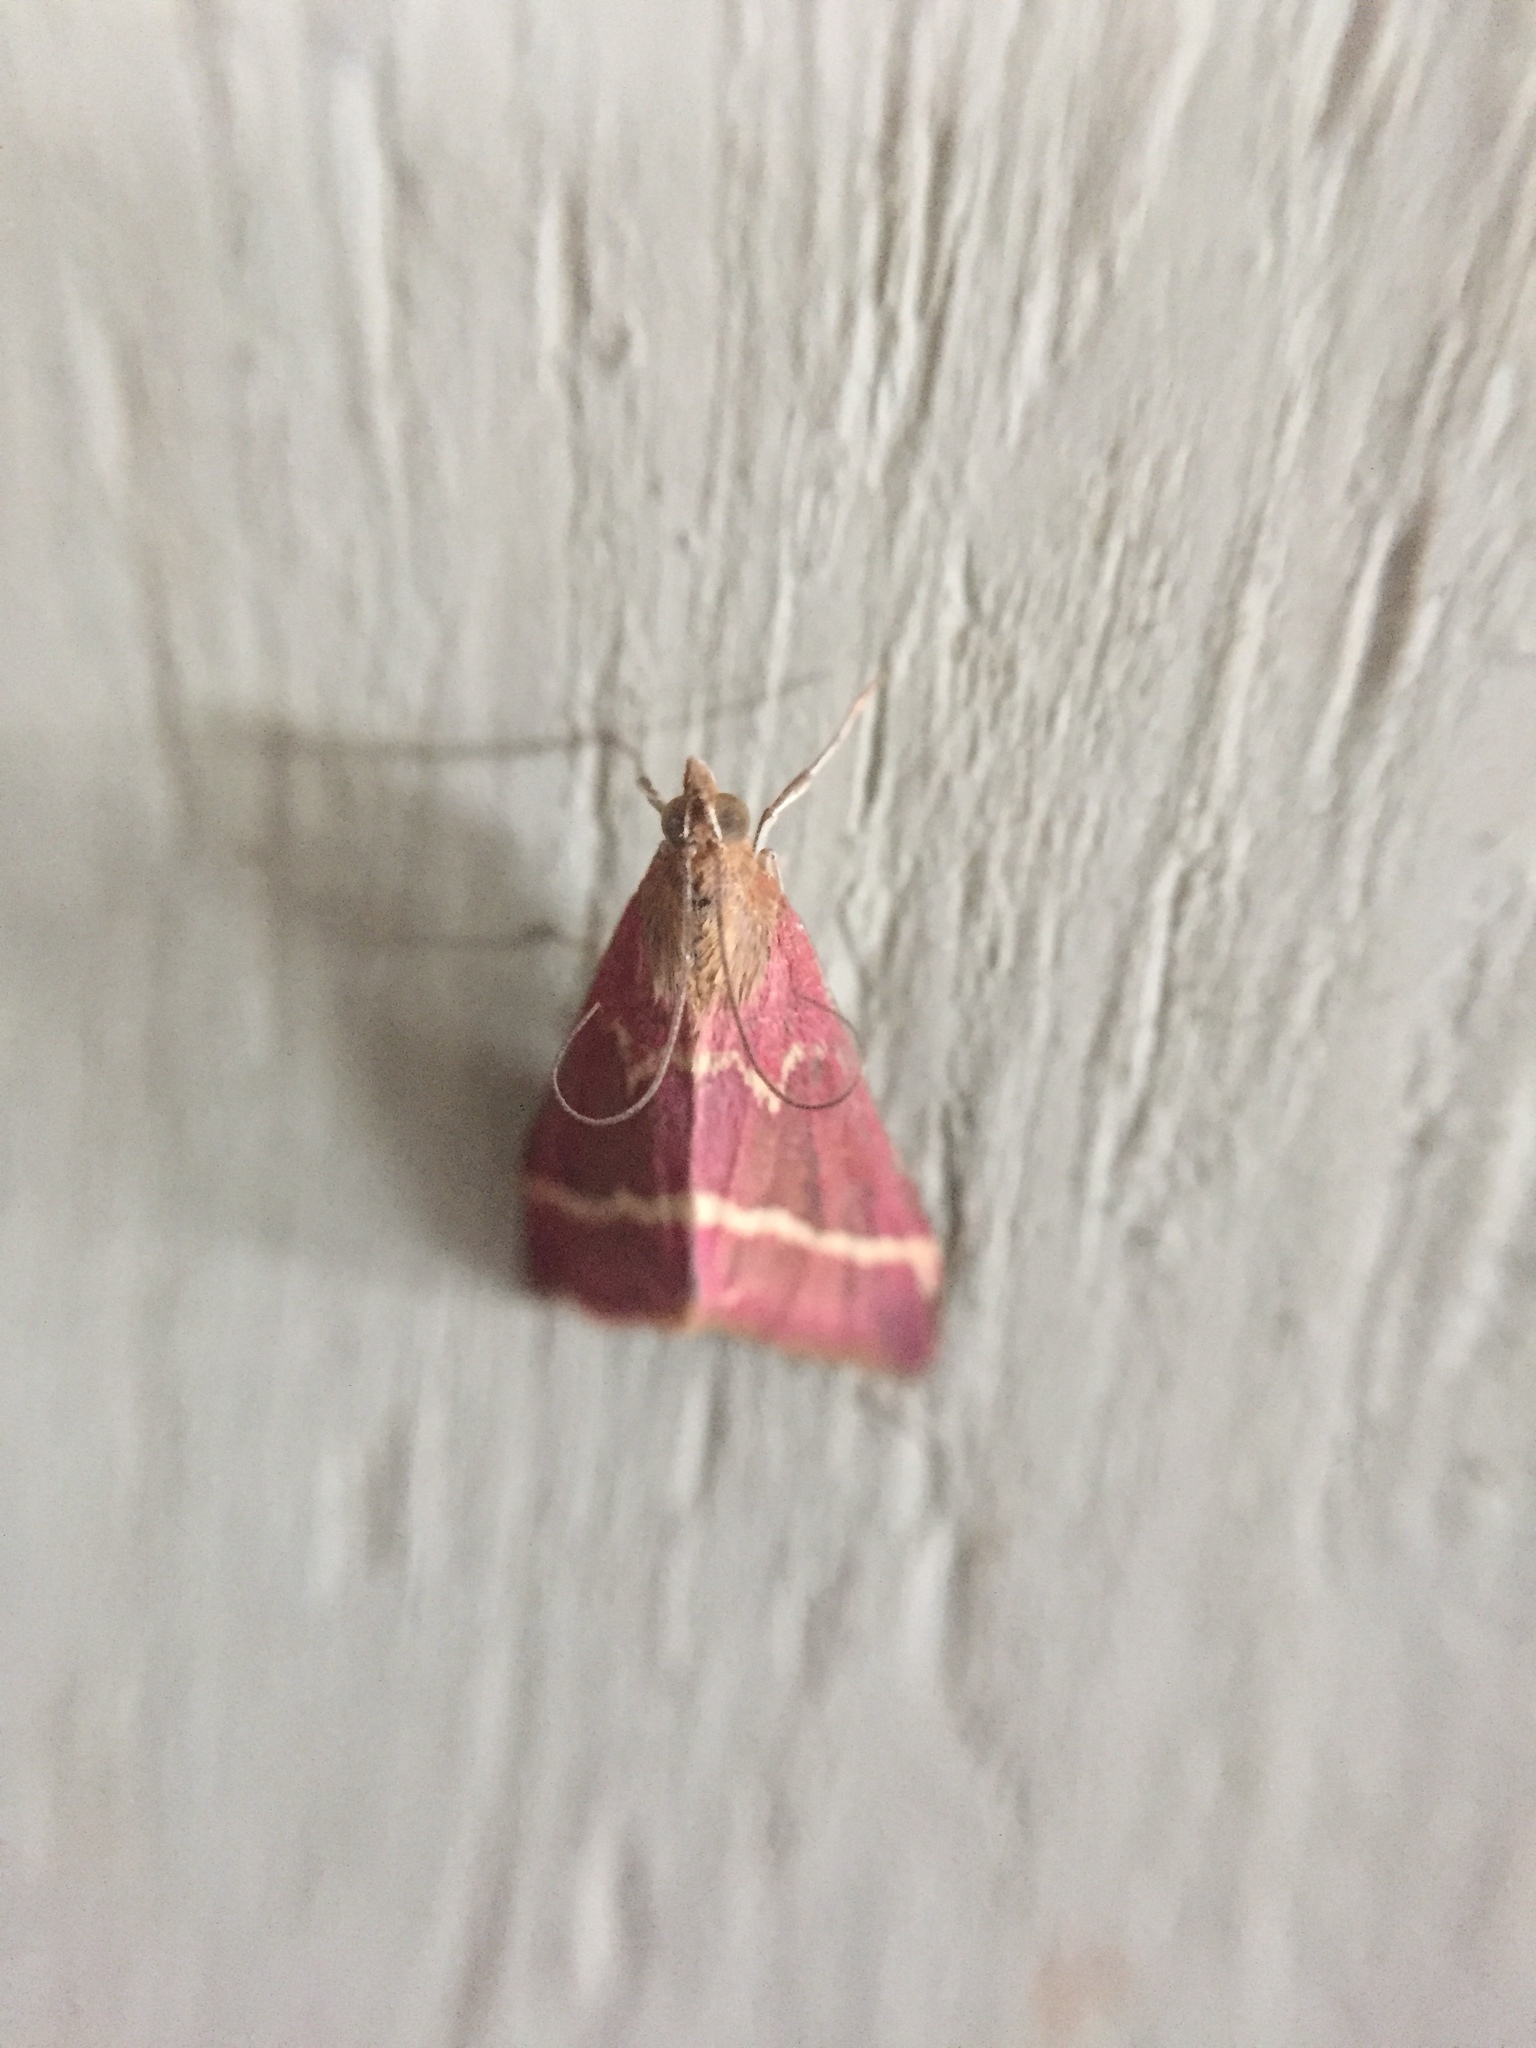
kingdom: Animalia
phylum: Arthropoda
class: Insecta
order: Lepidoptera
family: Crambidae
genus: Pyrausta
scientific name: Pyrausta volupialis
